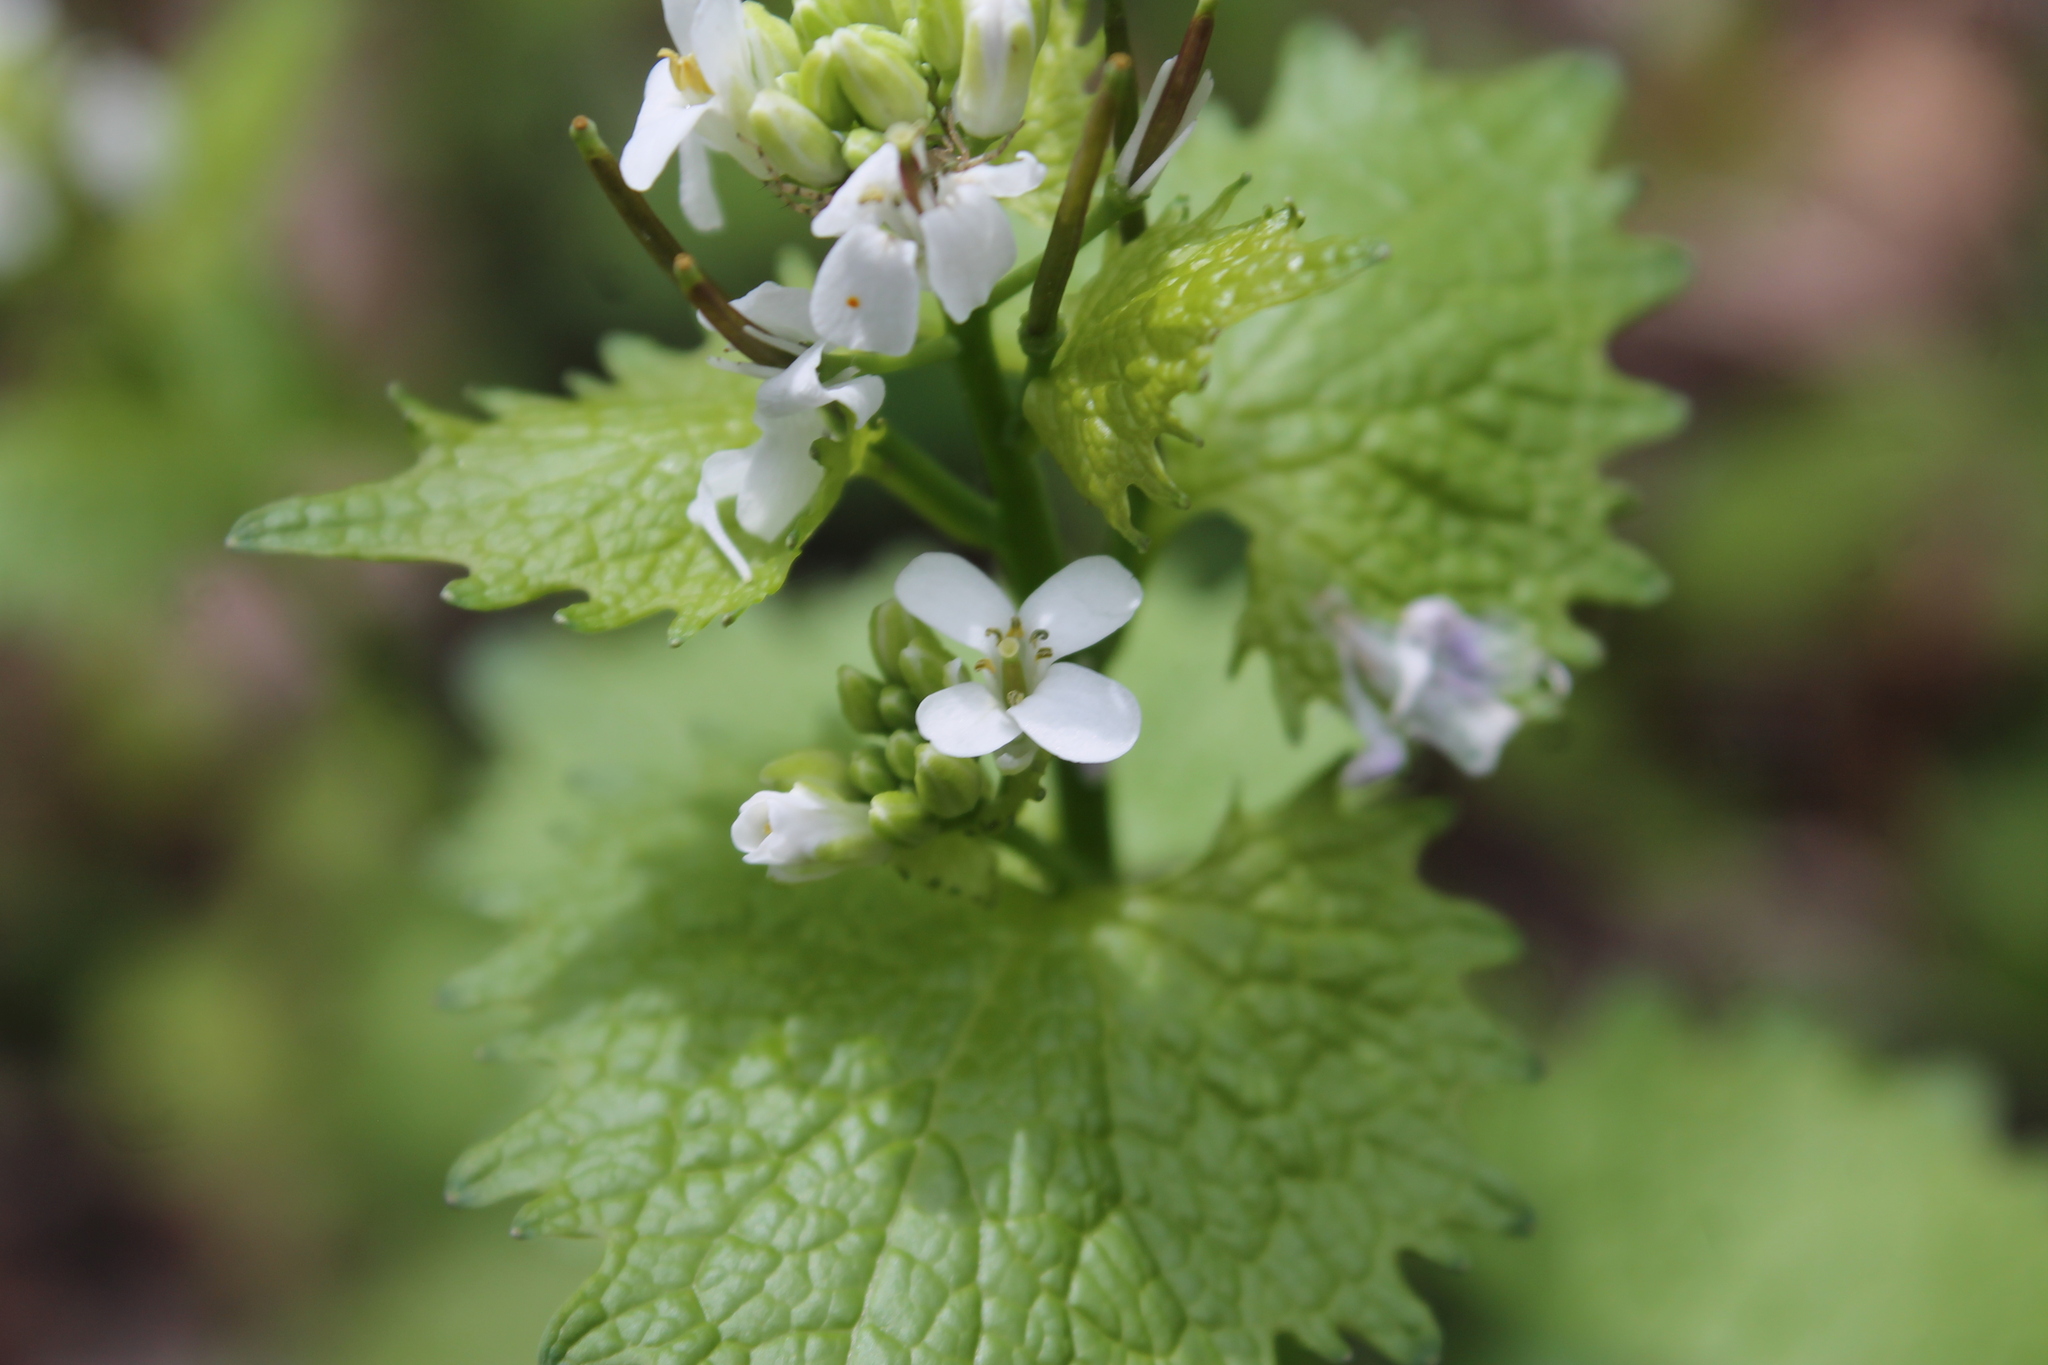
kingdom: Plantae
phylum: Tracheophyta
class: Magnoliopsida
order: Brassicales
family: Brassicaceae
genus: Alliaria
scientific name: Alliaria petiolata
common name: Garlic mustard
